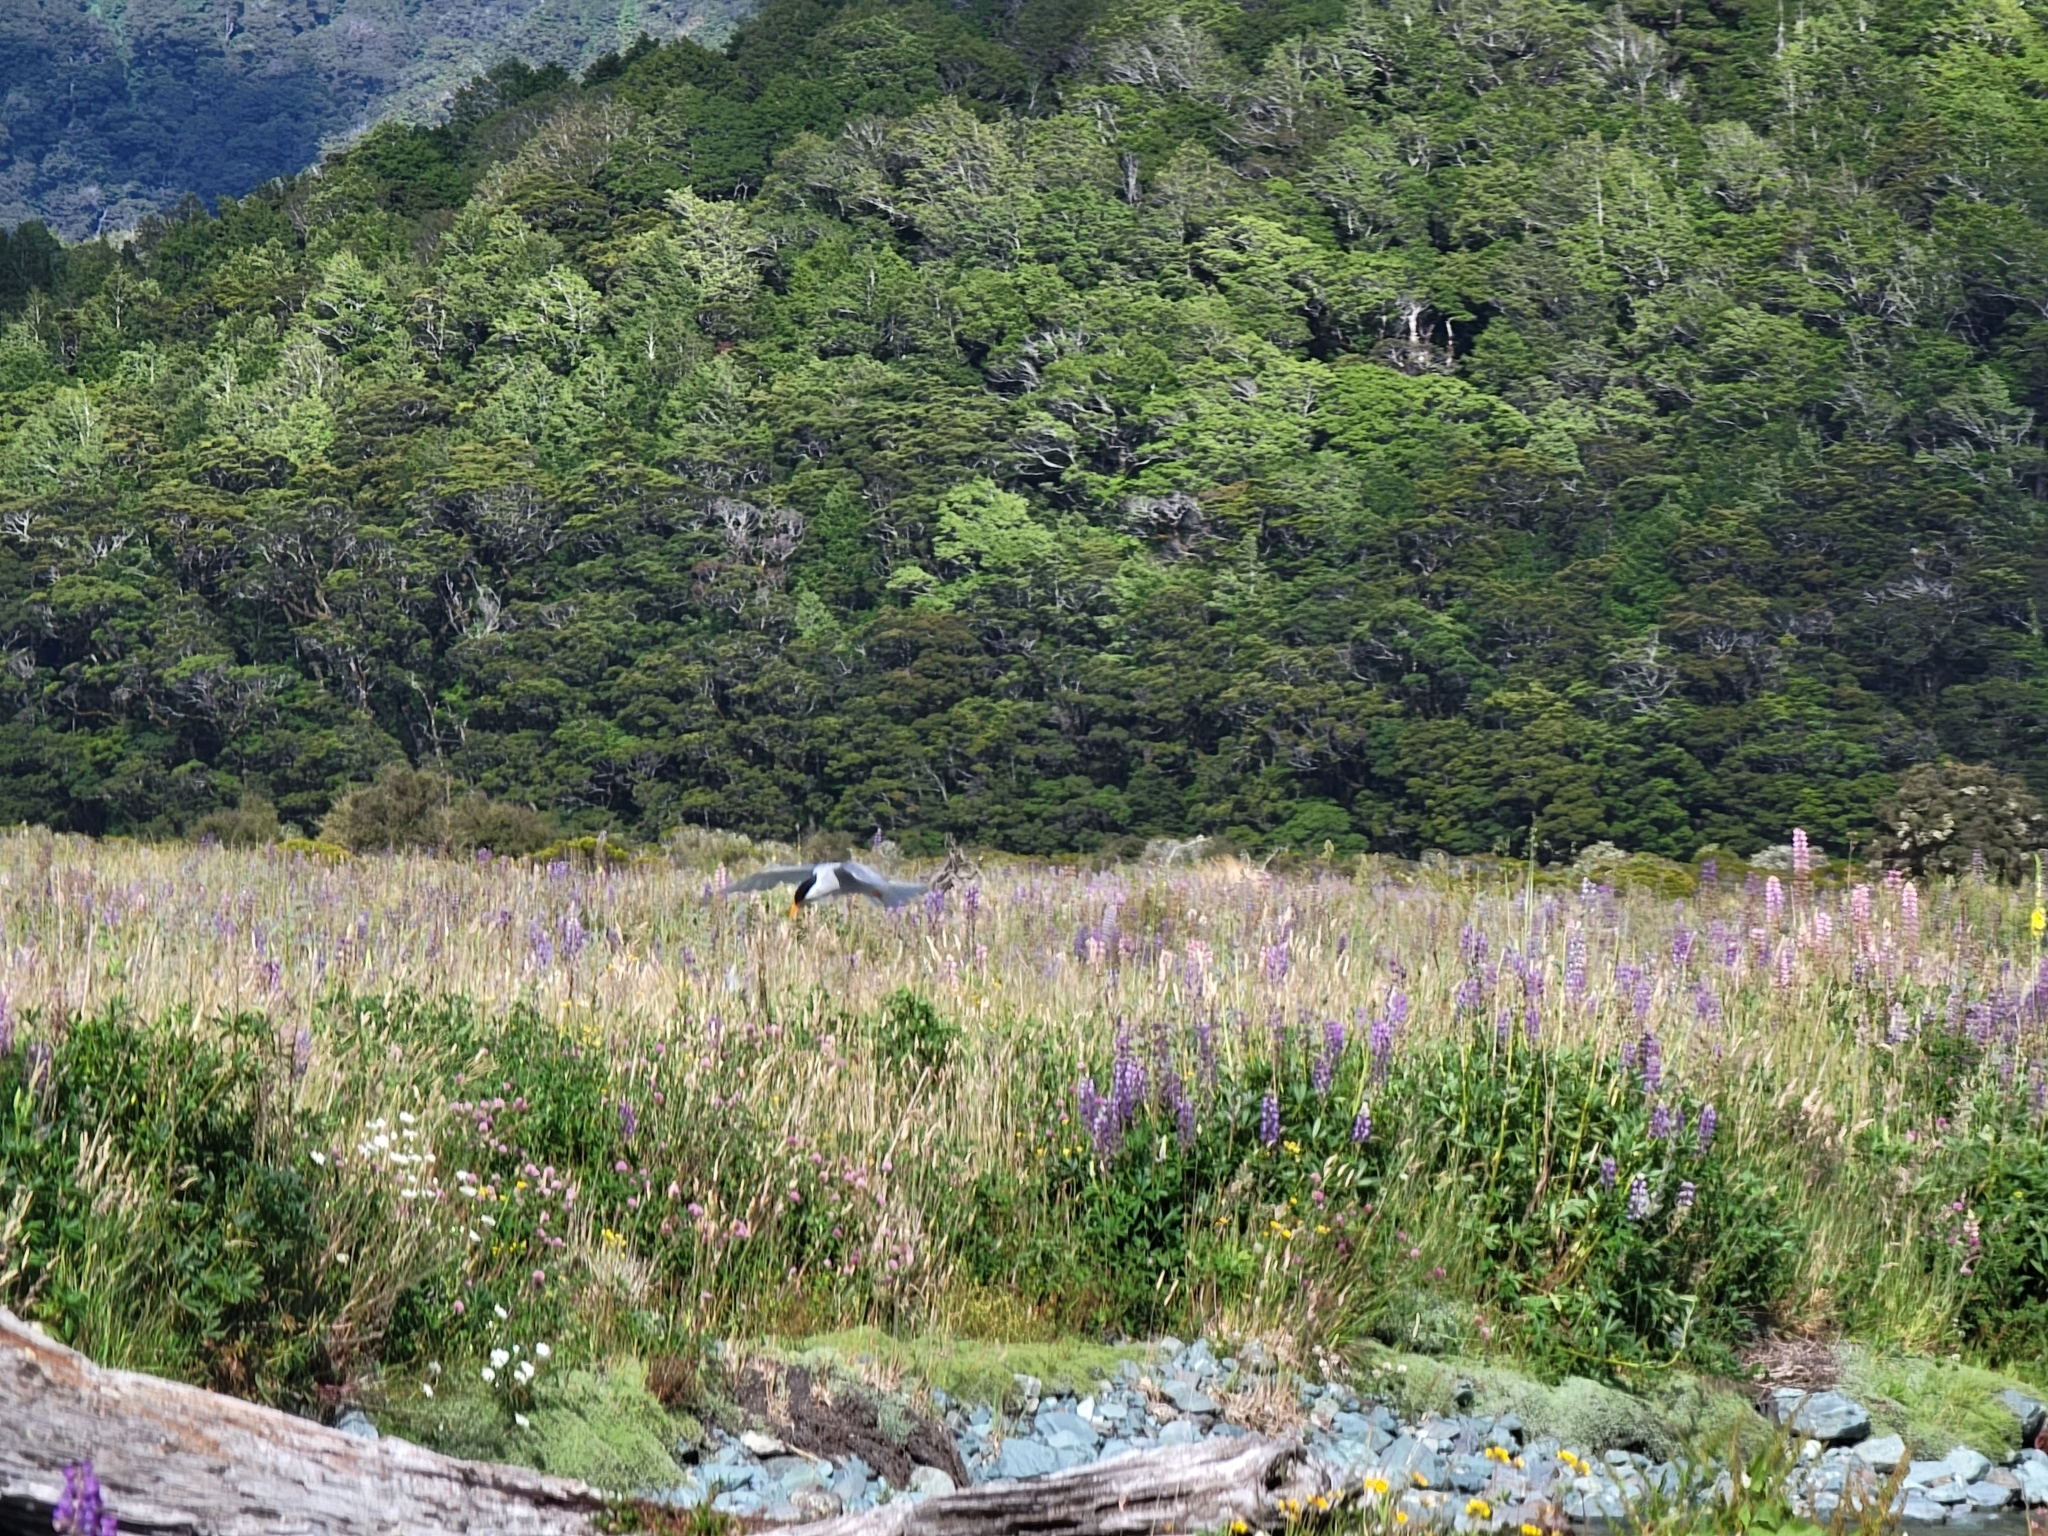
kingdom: Animalia
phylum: Chordata
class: Aves
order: Charadriiformes
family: Laridae
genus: Chlidonias
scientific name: Chlidonias albostriatus
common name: Black-fronted tern
